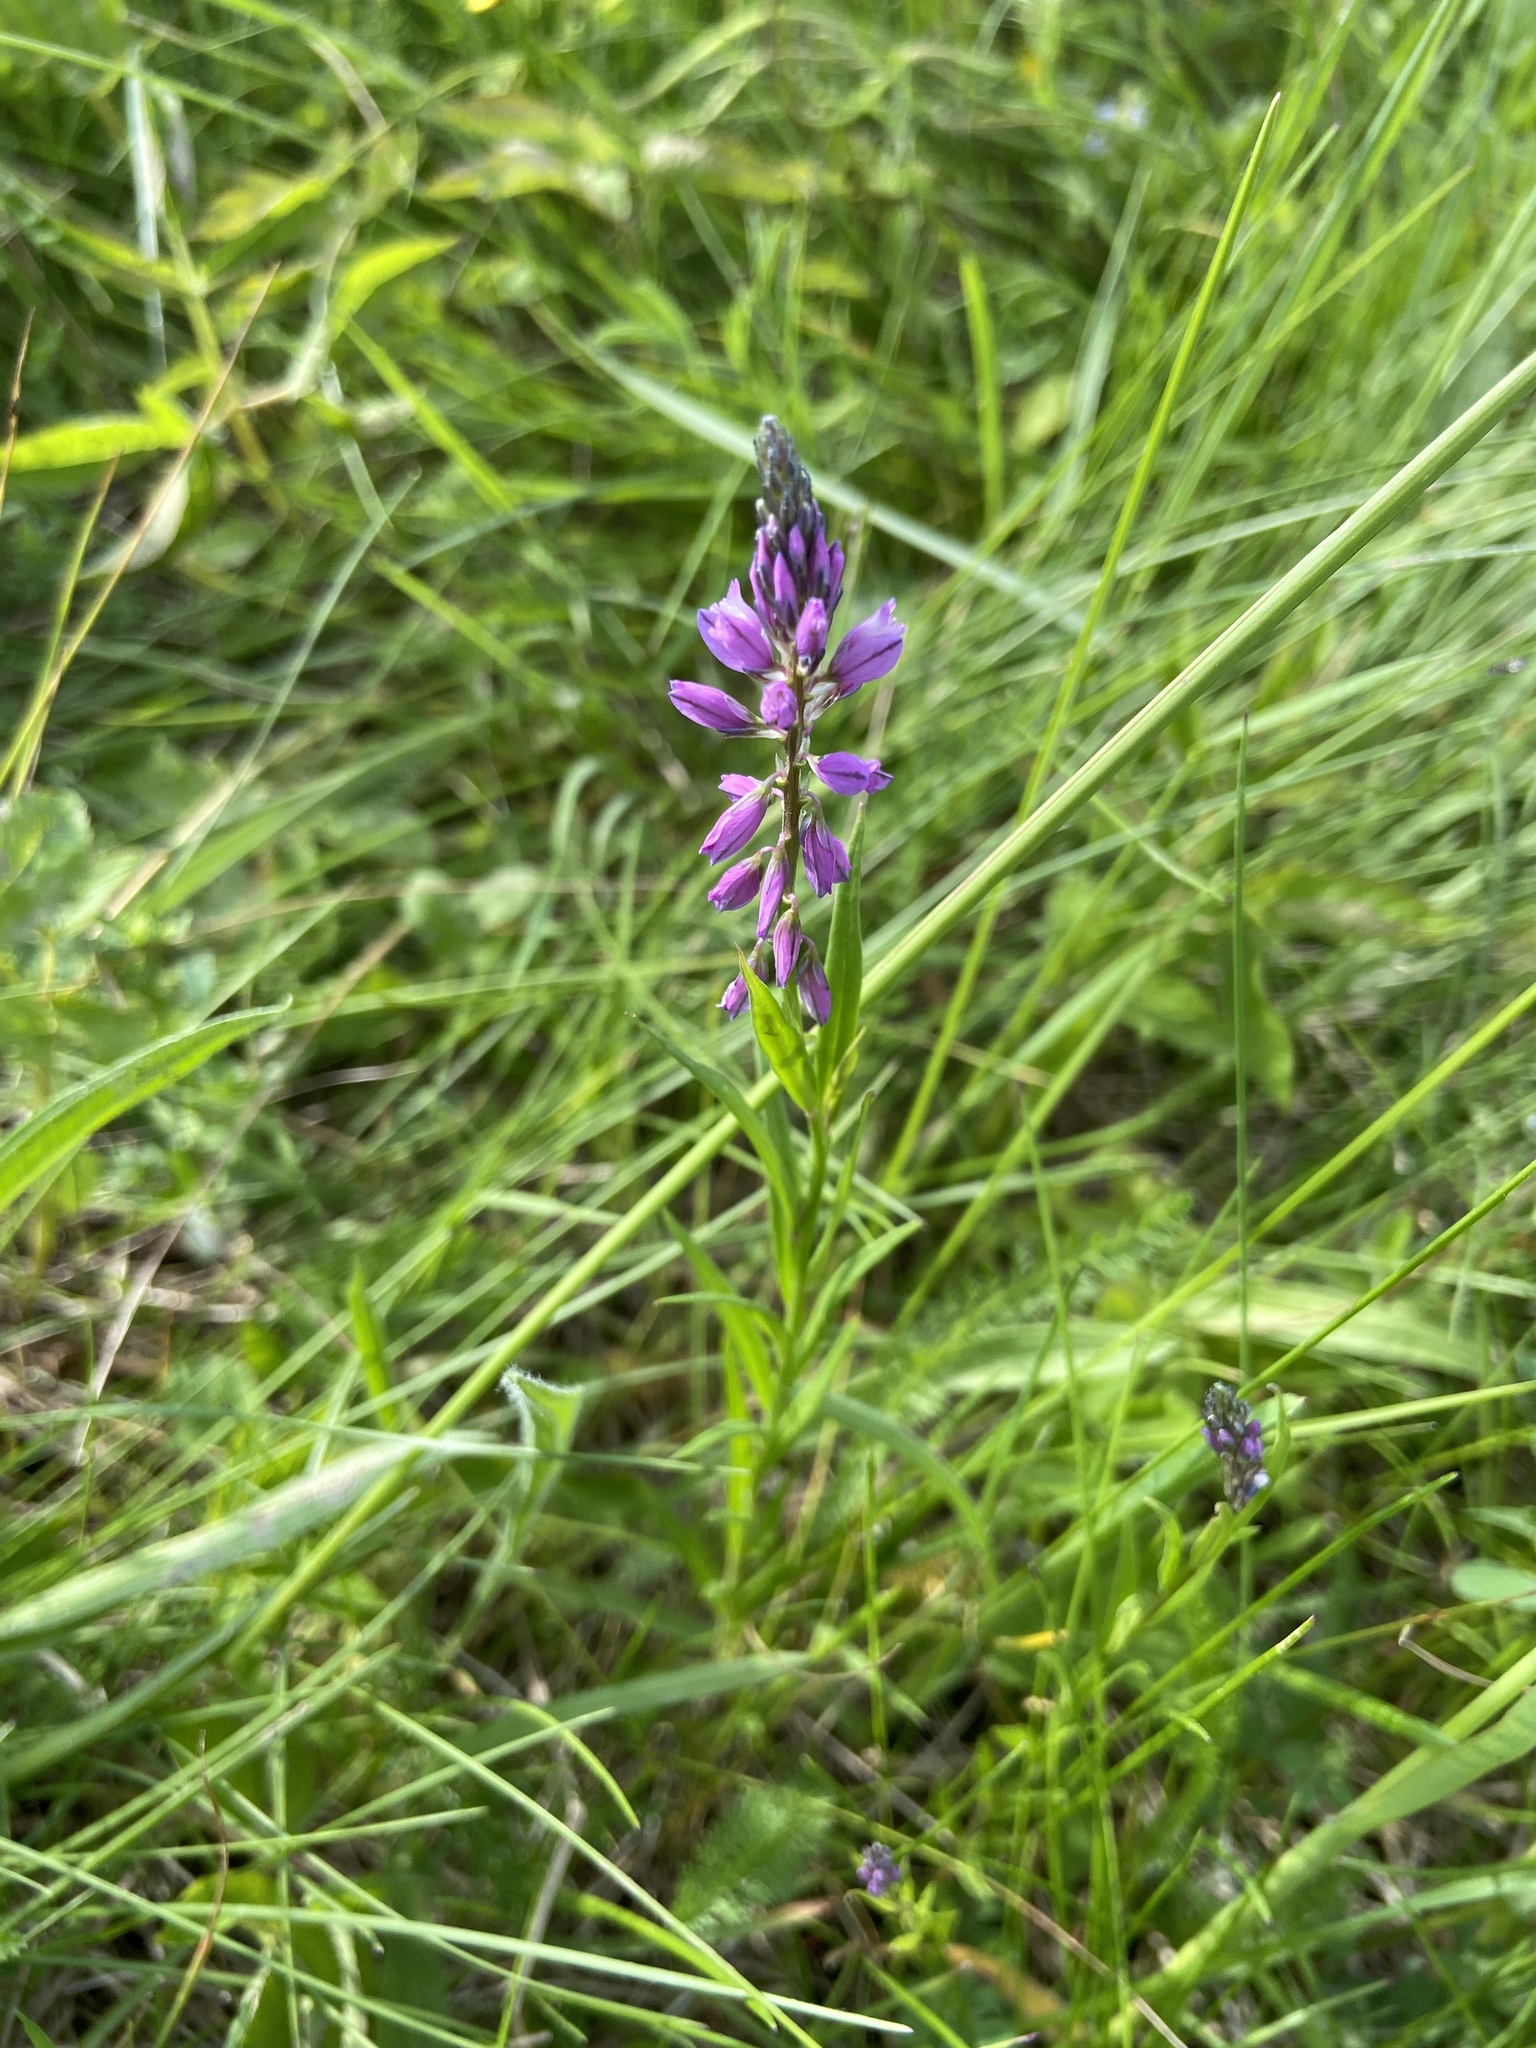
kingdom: Plantae
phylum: Tracheophyta
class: Magnoliopsida
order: Fabales
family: Polygalaceae
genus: Polygala
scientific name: Polygala comosa
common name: Tufted milkwort
